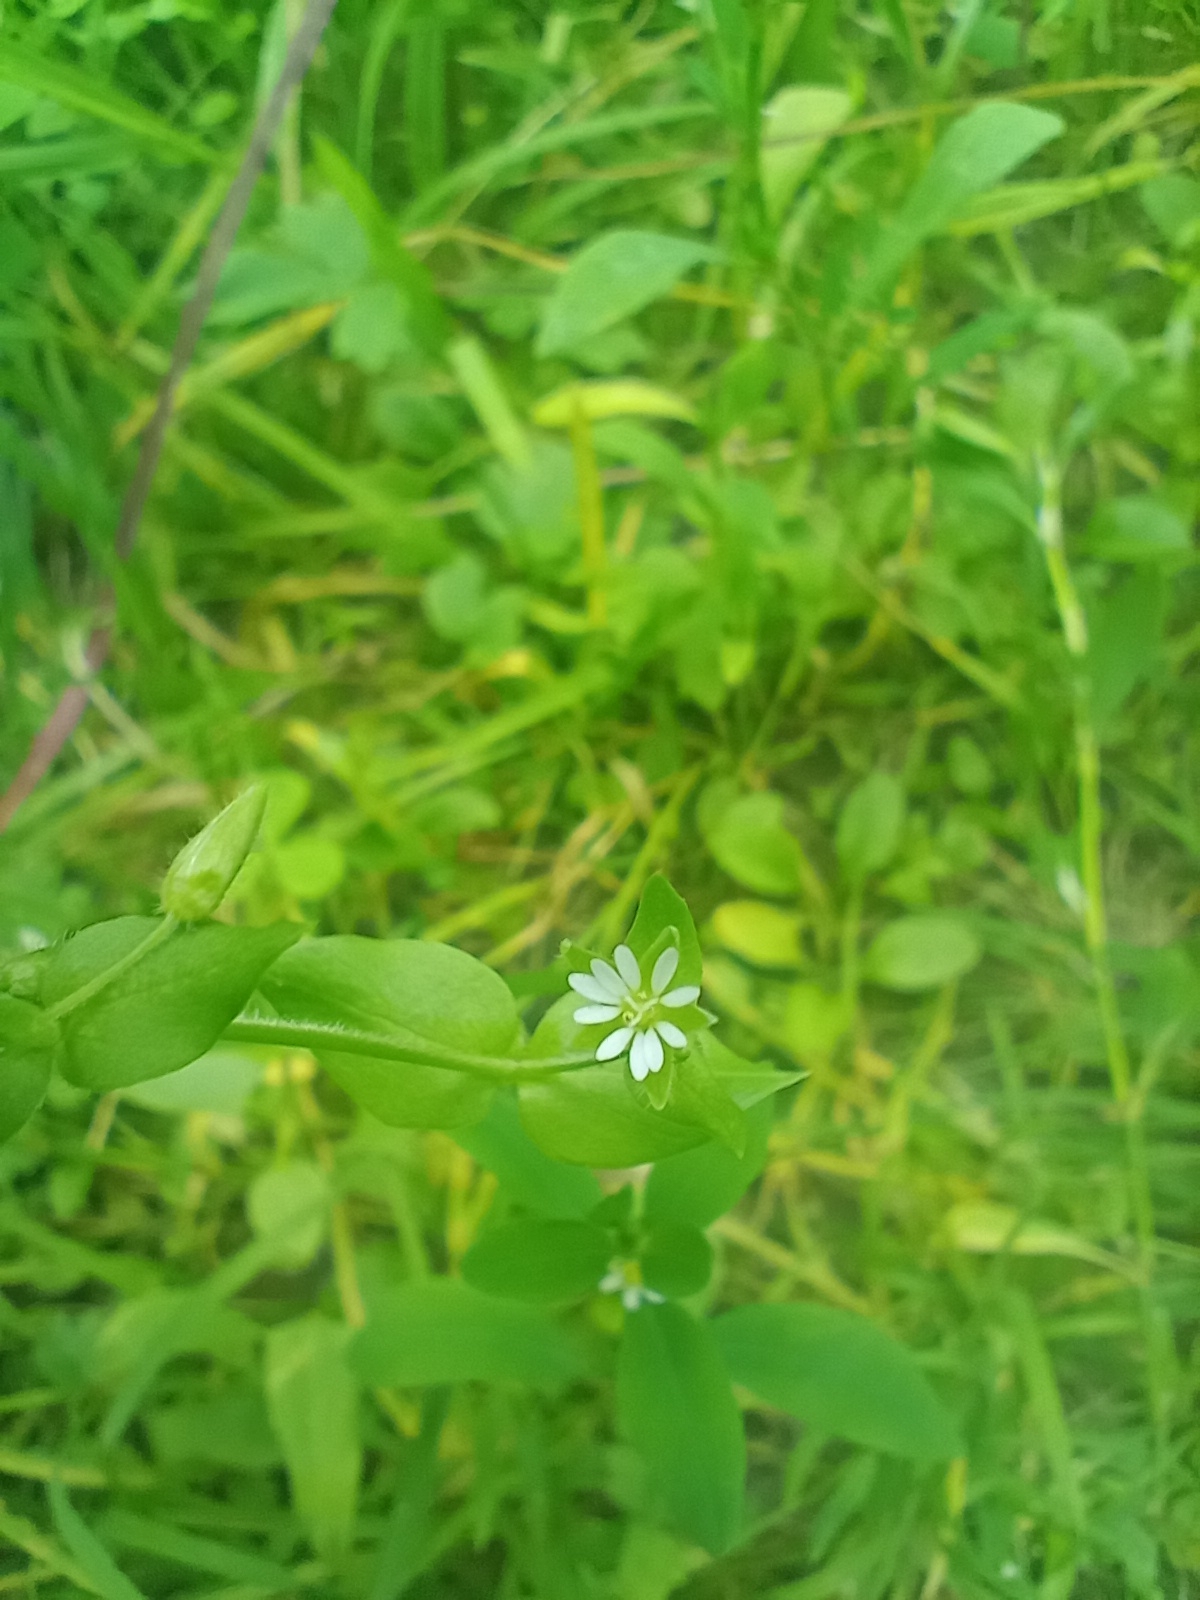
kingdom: Plantae
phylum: Tracheophyta
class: Magnoliopsida
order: Caryophyllales
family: Caryophyllaceae
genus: Stellaria
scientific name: Stellaria media
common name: Common chickweed
